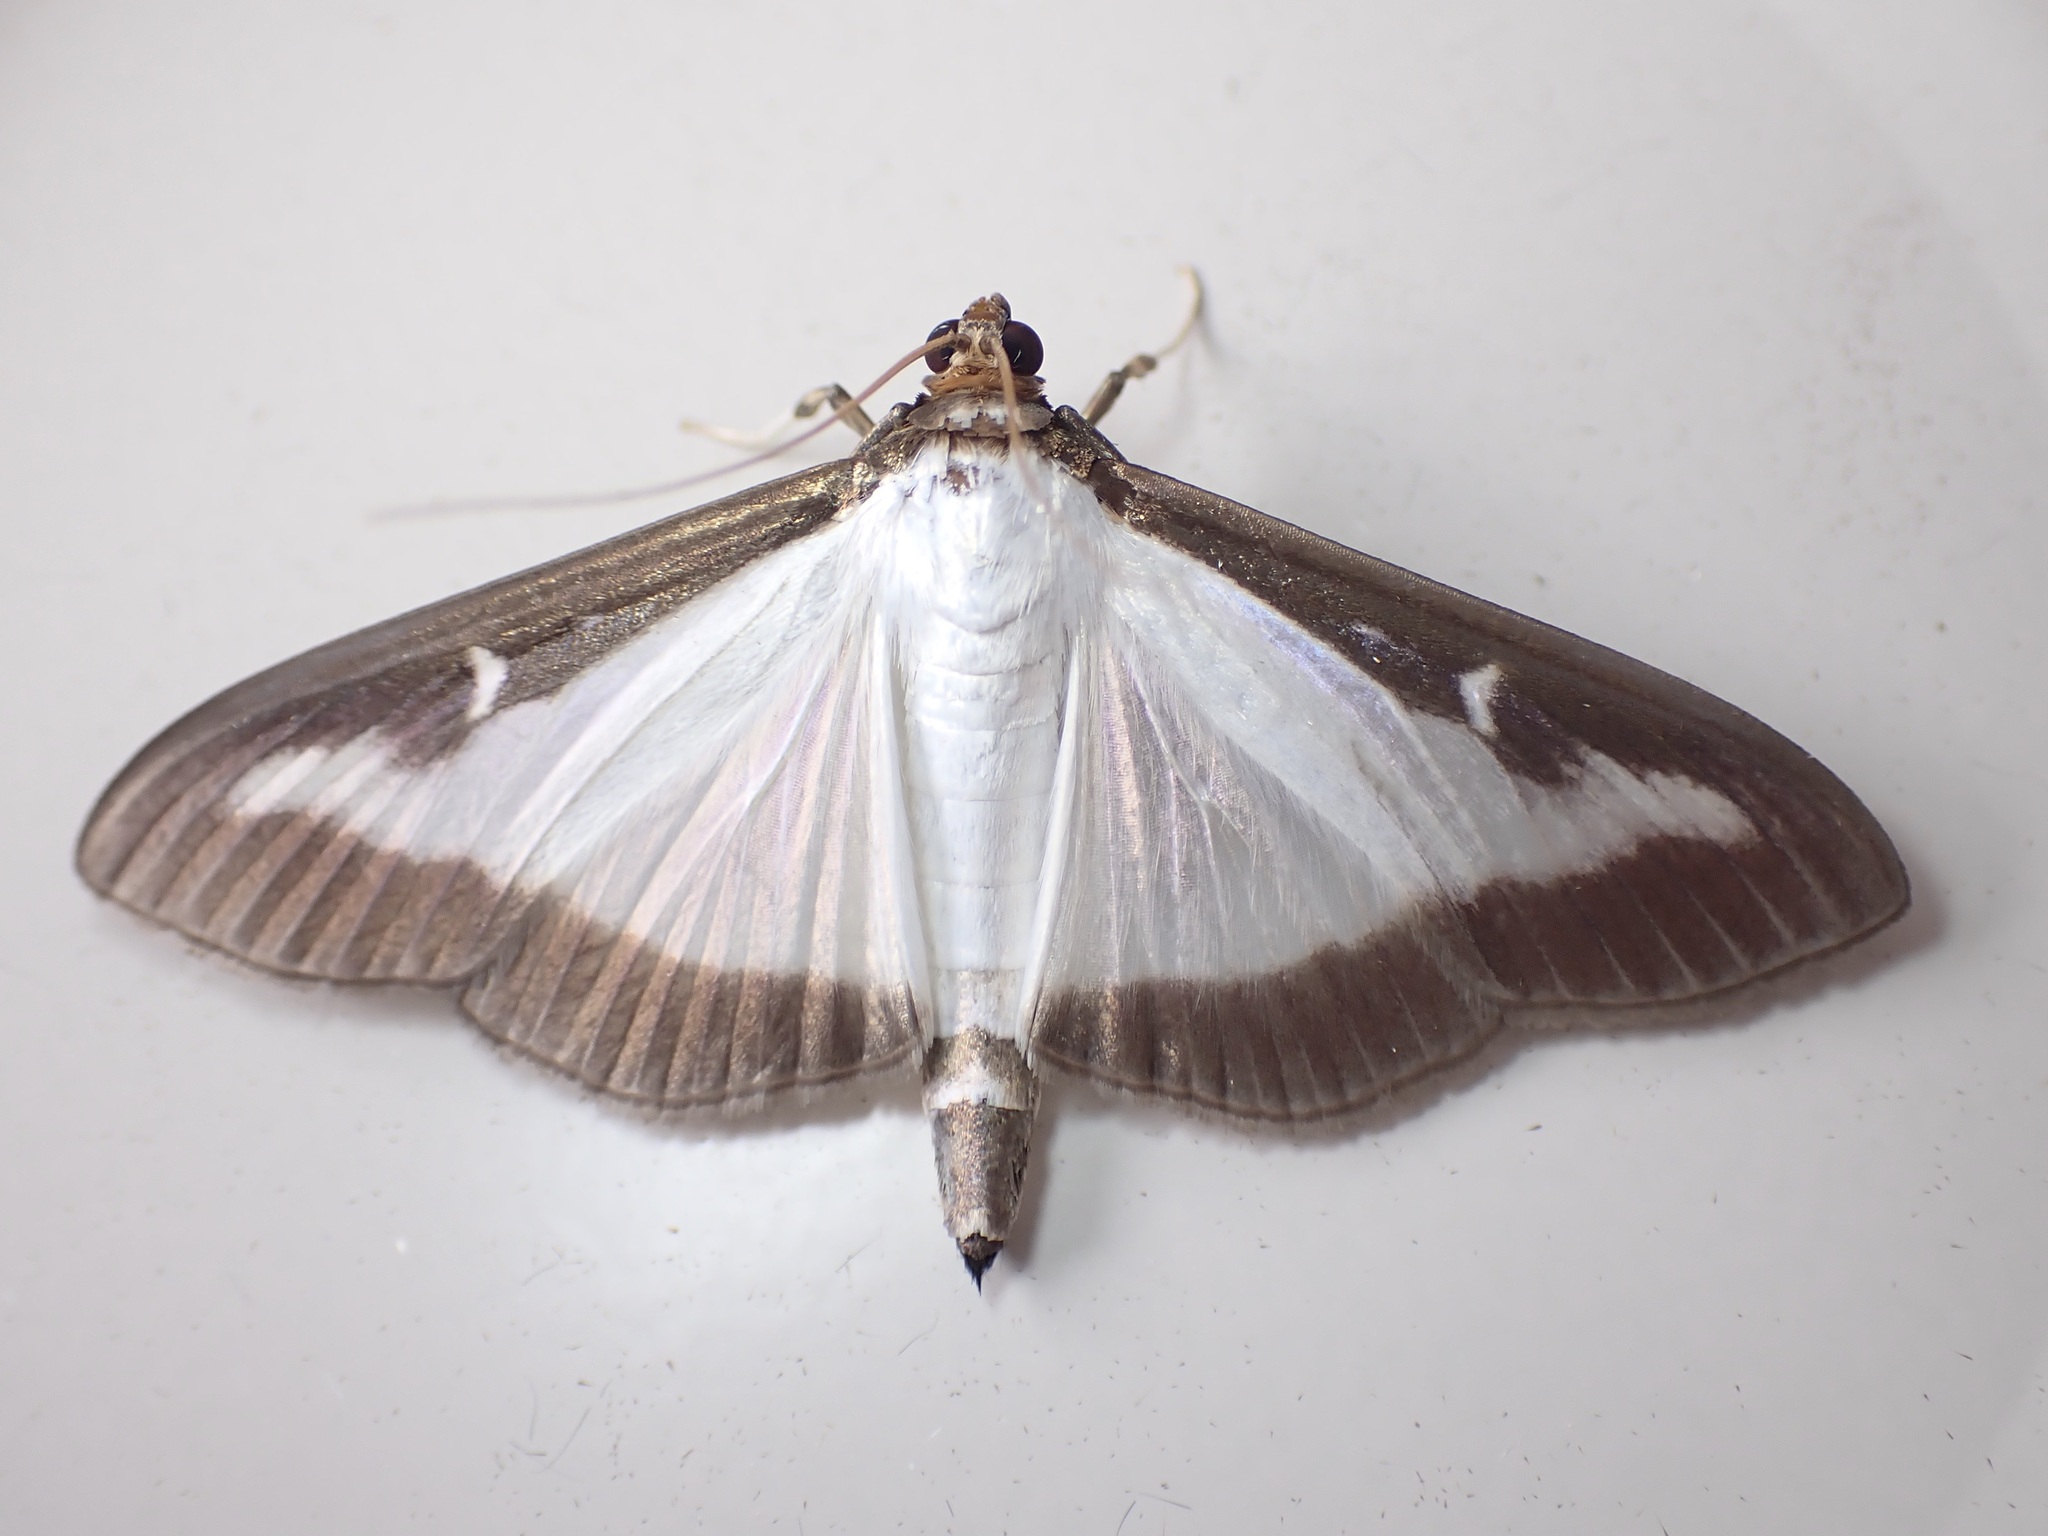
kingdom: Animalia
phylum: Arthropoda
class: Insecta
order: Lepidoptera
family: Crambidae
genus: Cydalima
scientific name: Cydalima perspectalis
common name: Box tree moth
